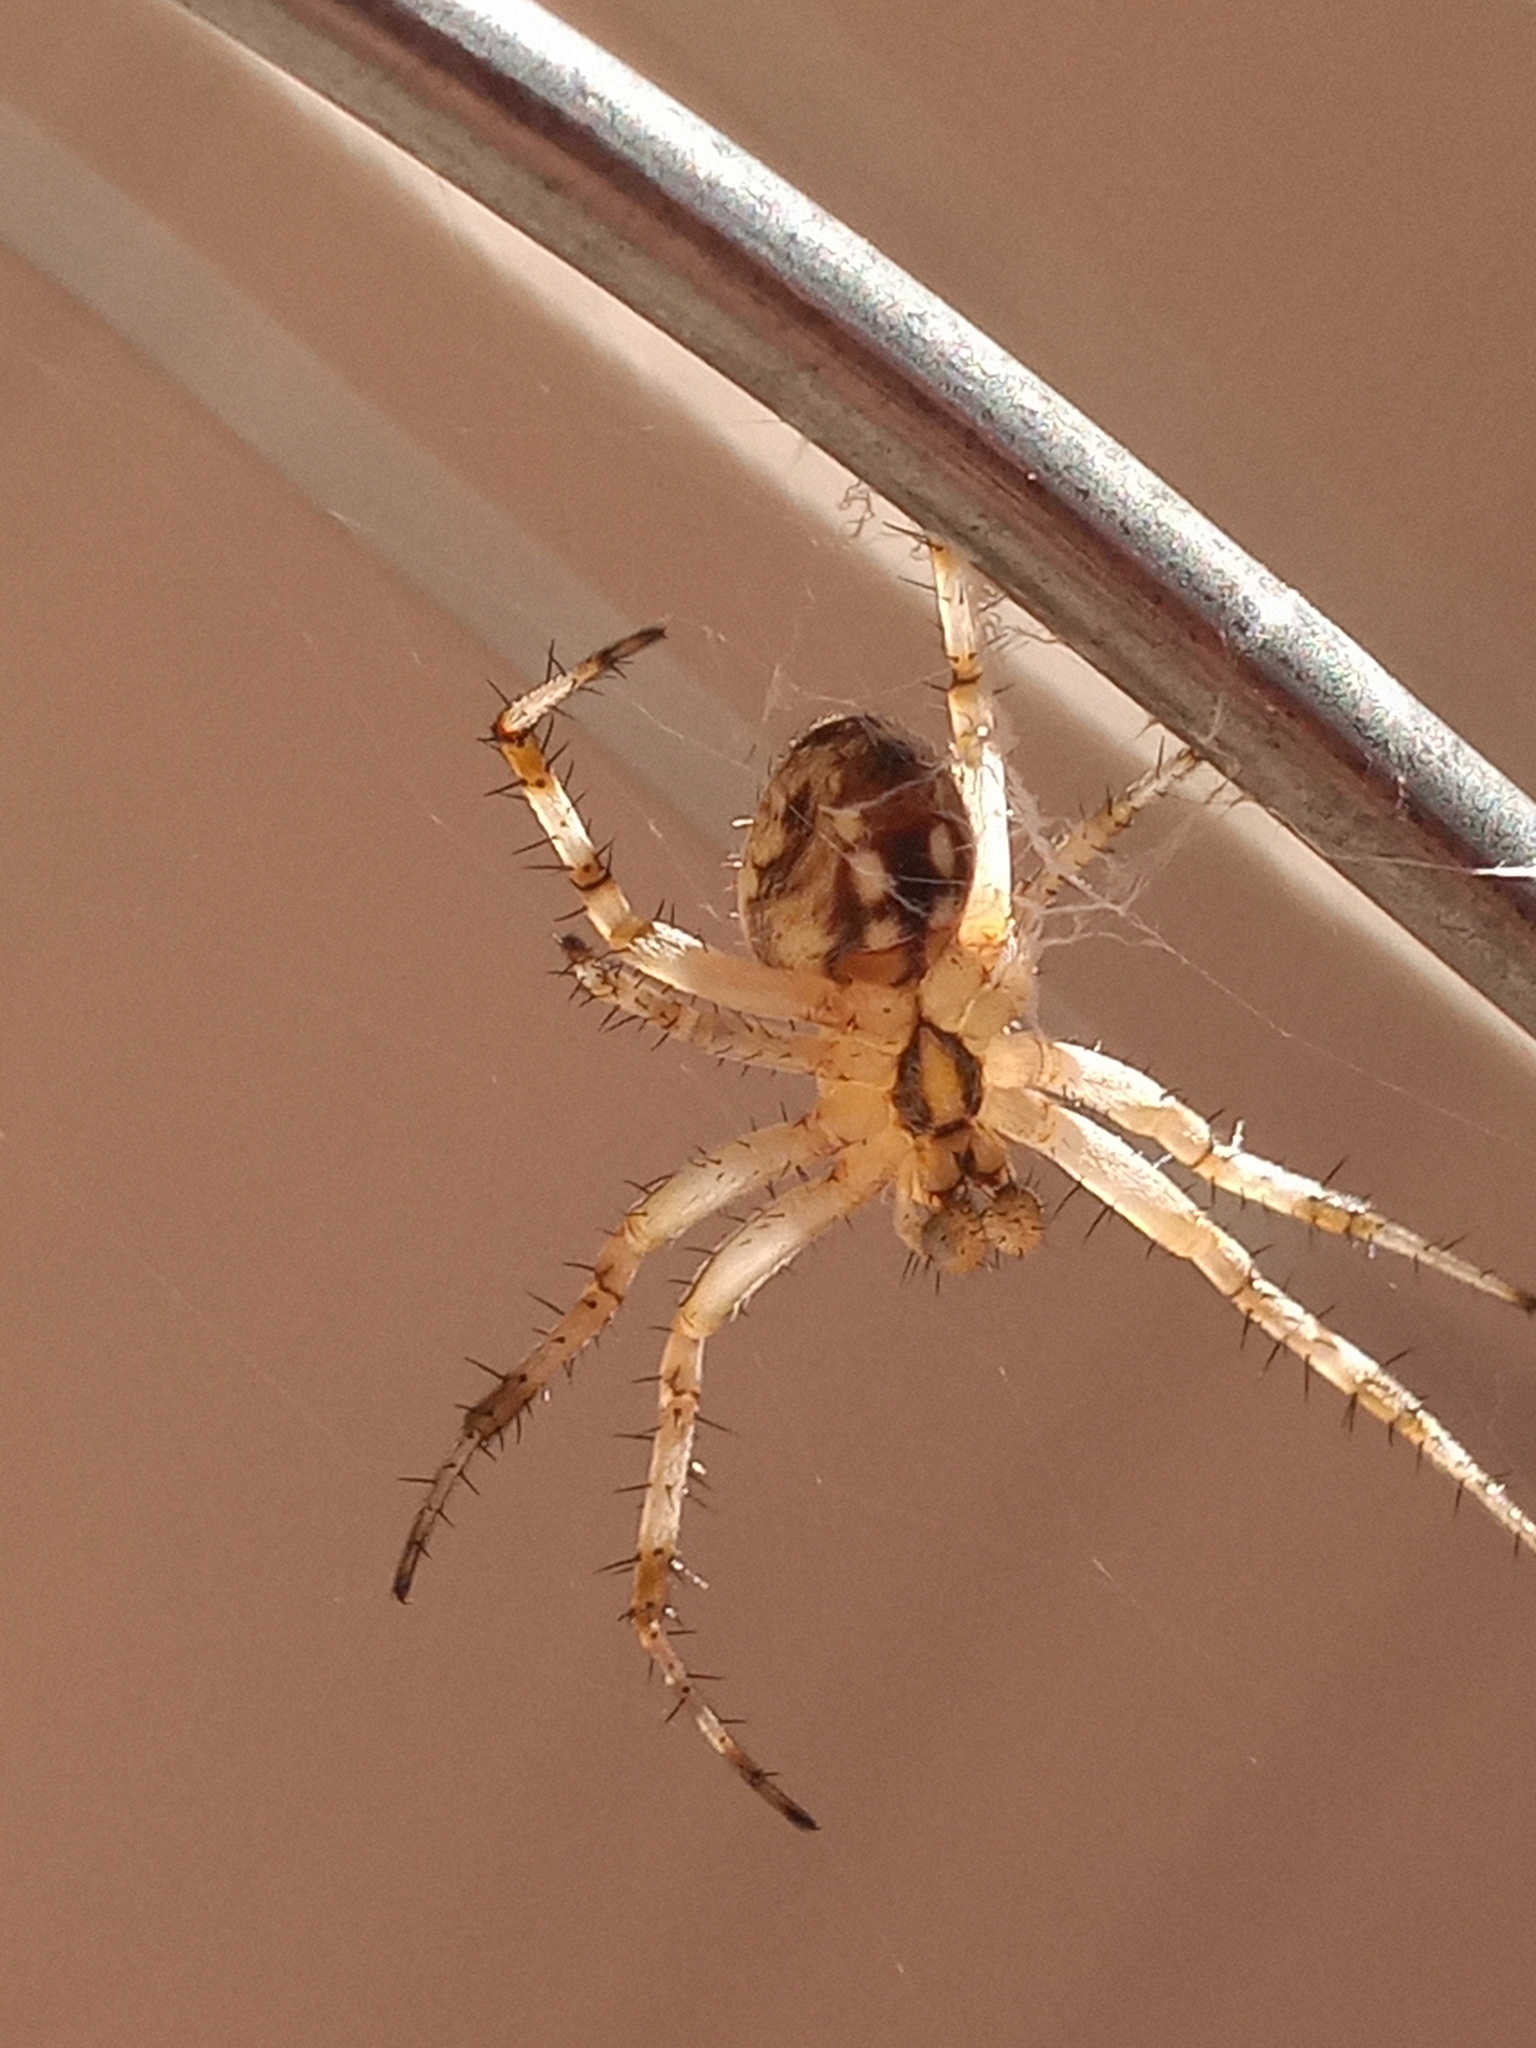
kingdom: Animalia
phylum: Arthropoda
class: Arachnida
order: Araneae
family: Araneidae
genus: Neoscona
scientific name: Neoscona oaxacensis
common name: Orb weavers
